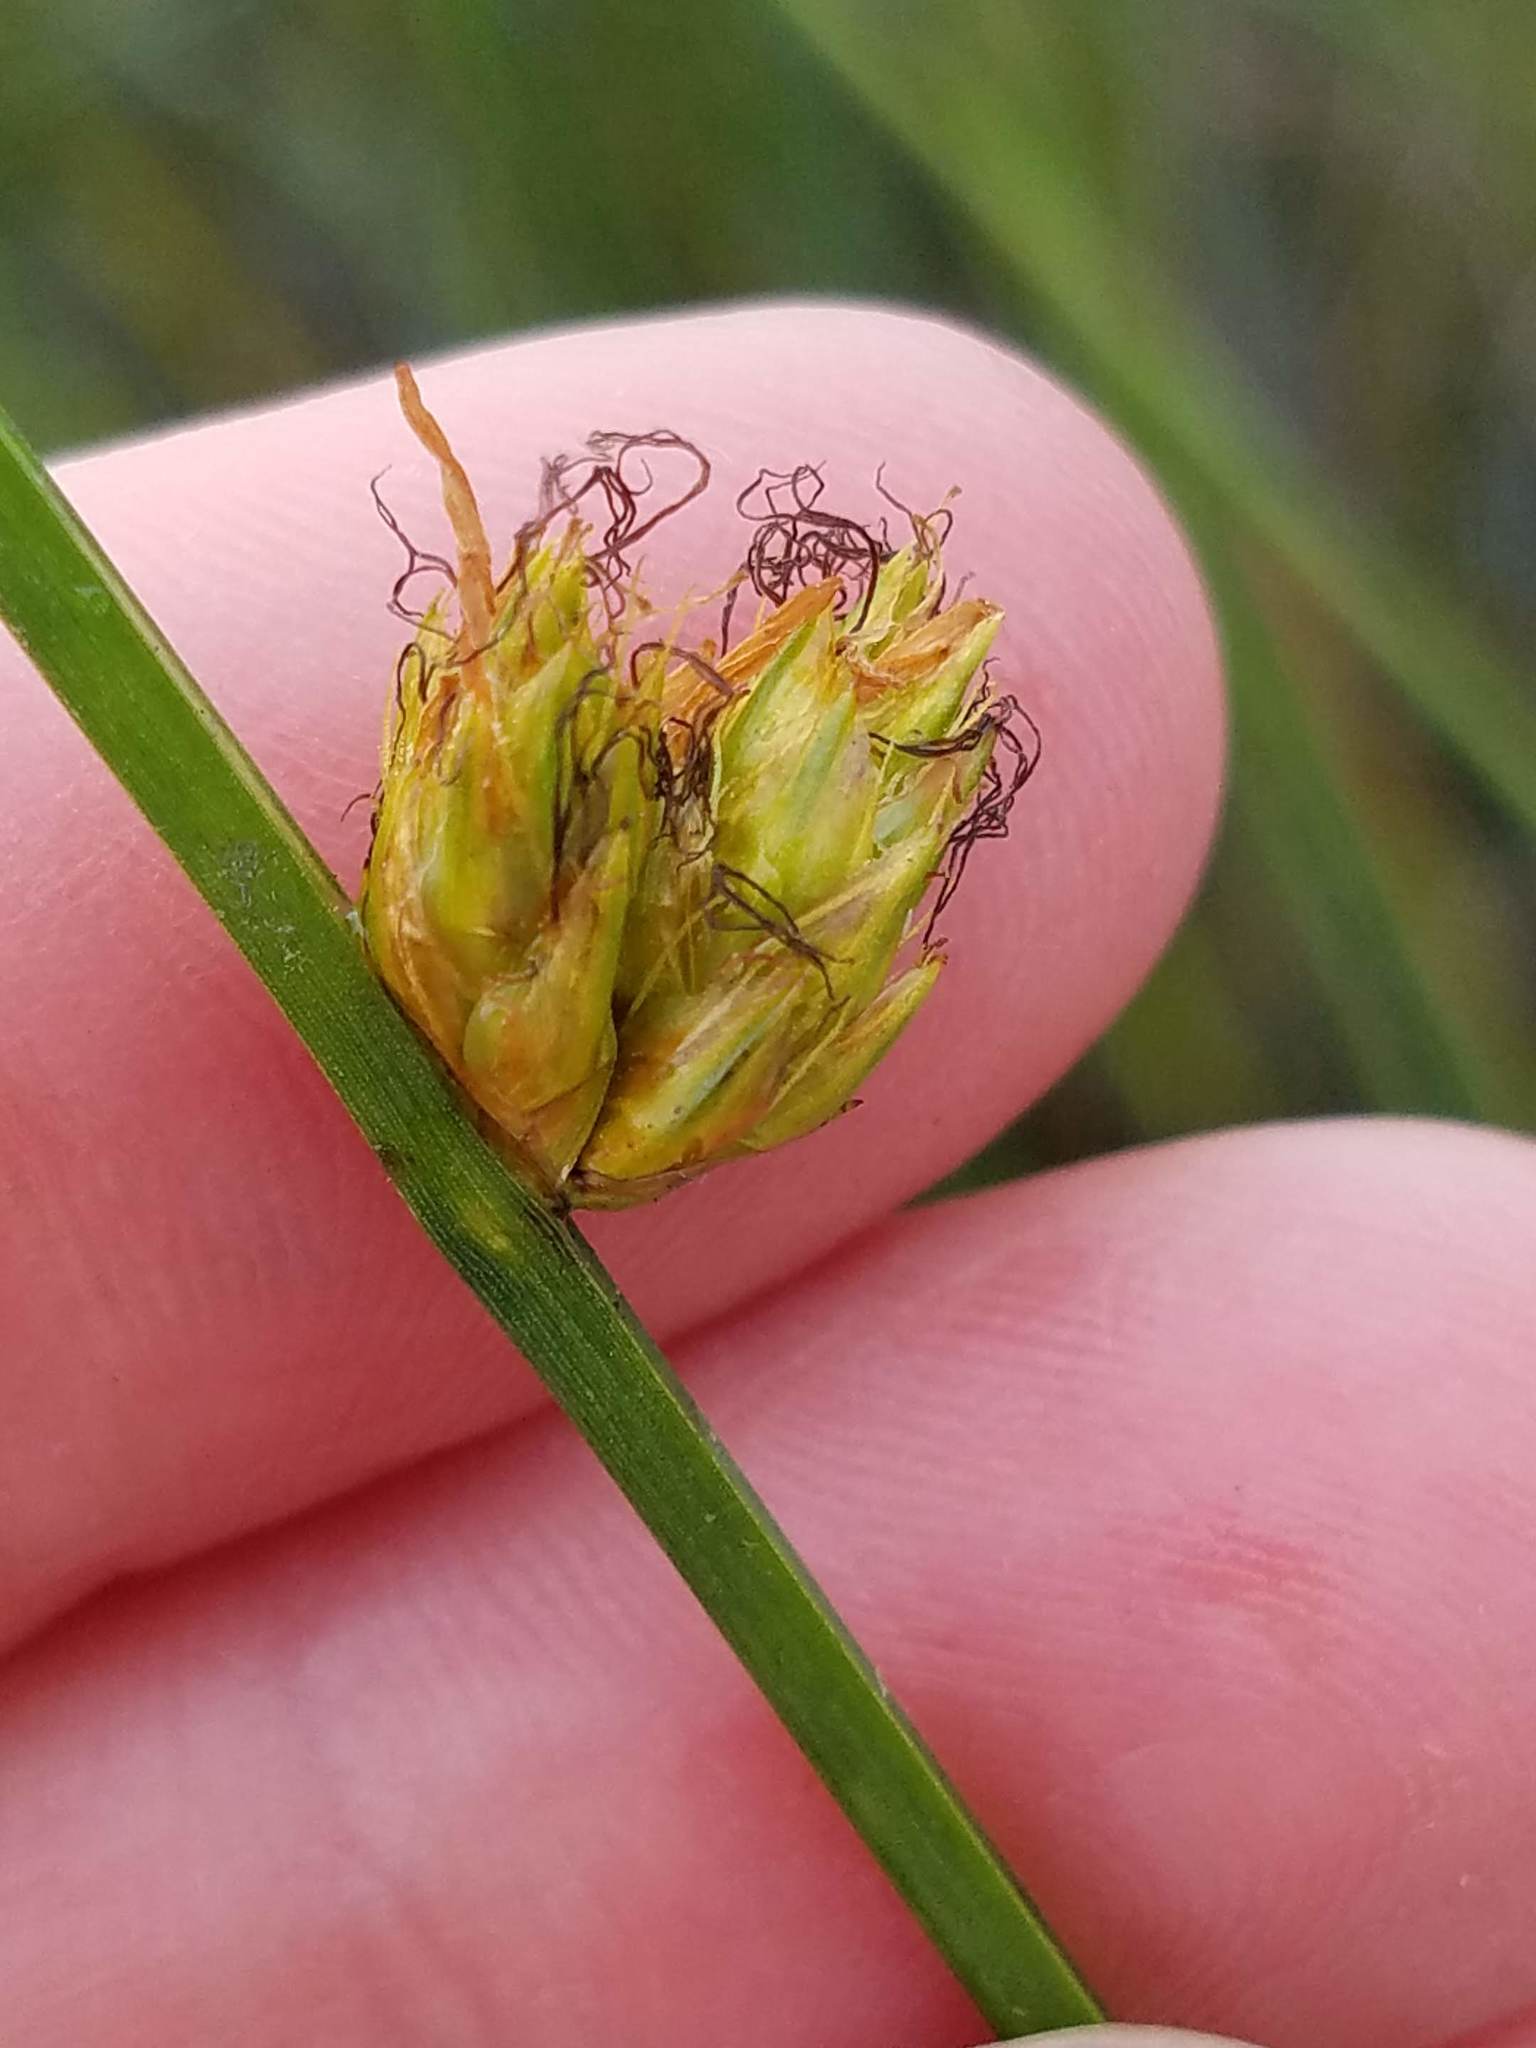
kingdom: Plantae
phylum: Tracheophyta
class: Liliopsida
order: Poales
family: Cyperaceae
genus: Schoenoplectus
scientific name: Schoenoplectus torreyi
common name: Torrey's bulrush
